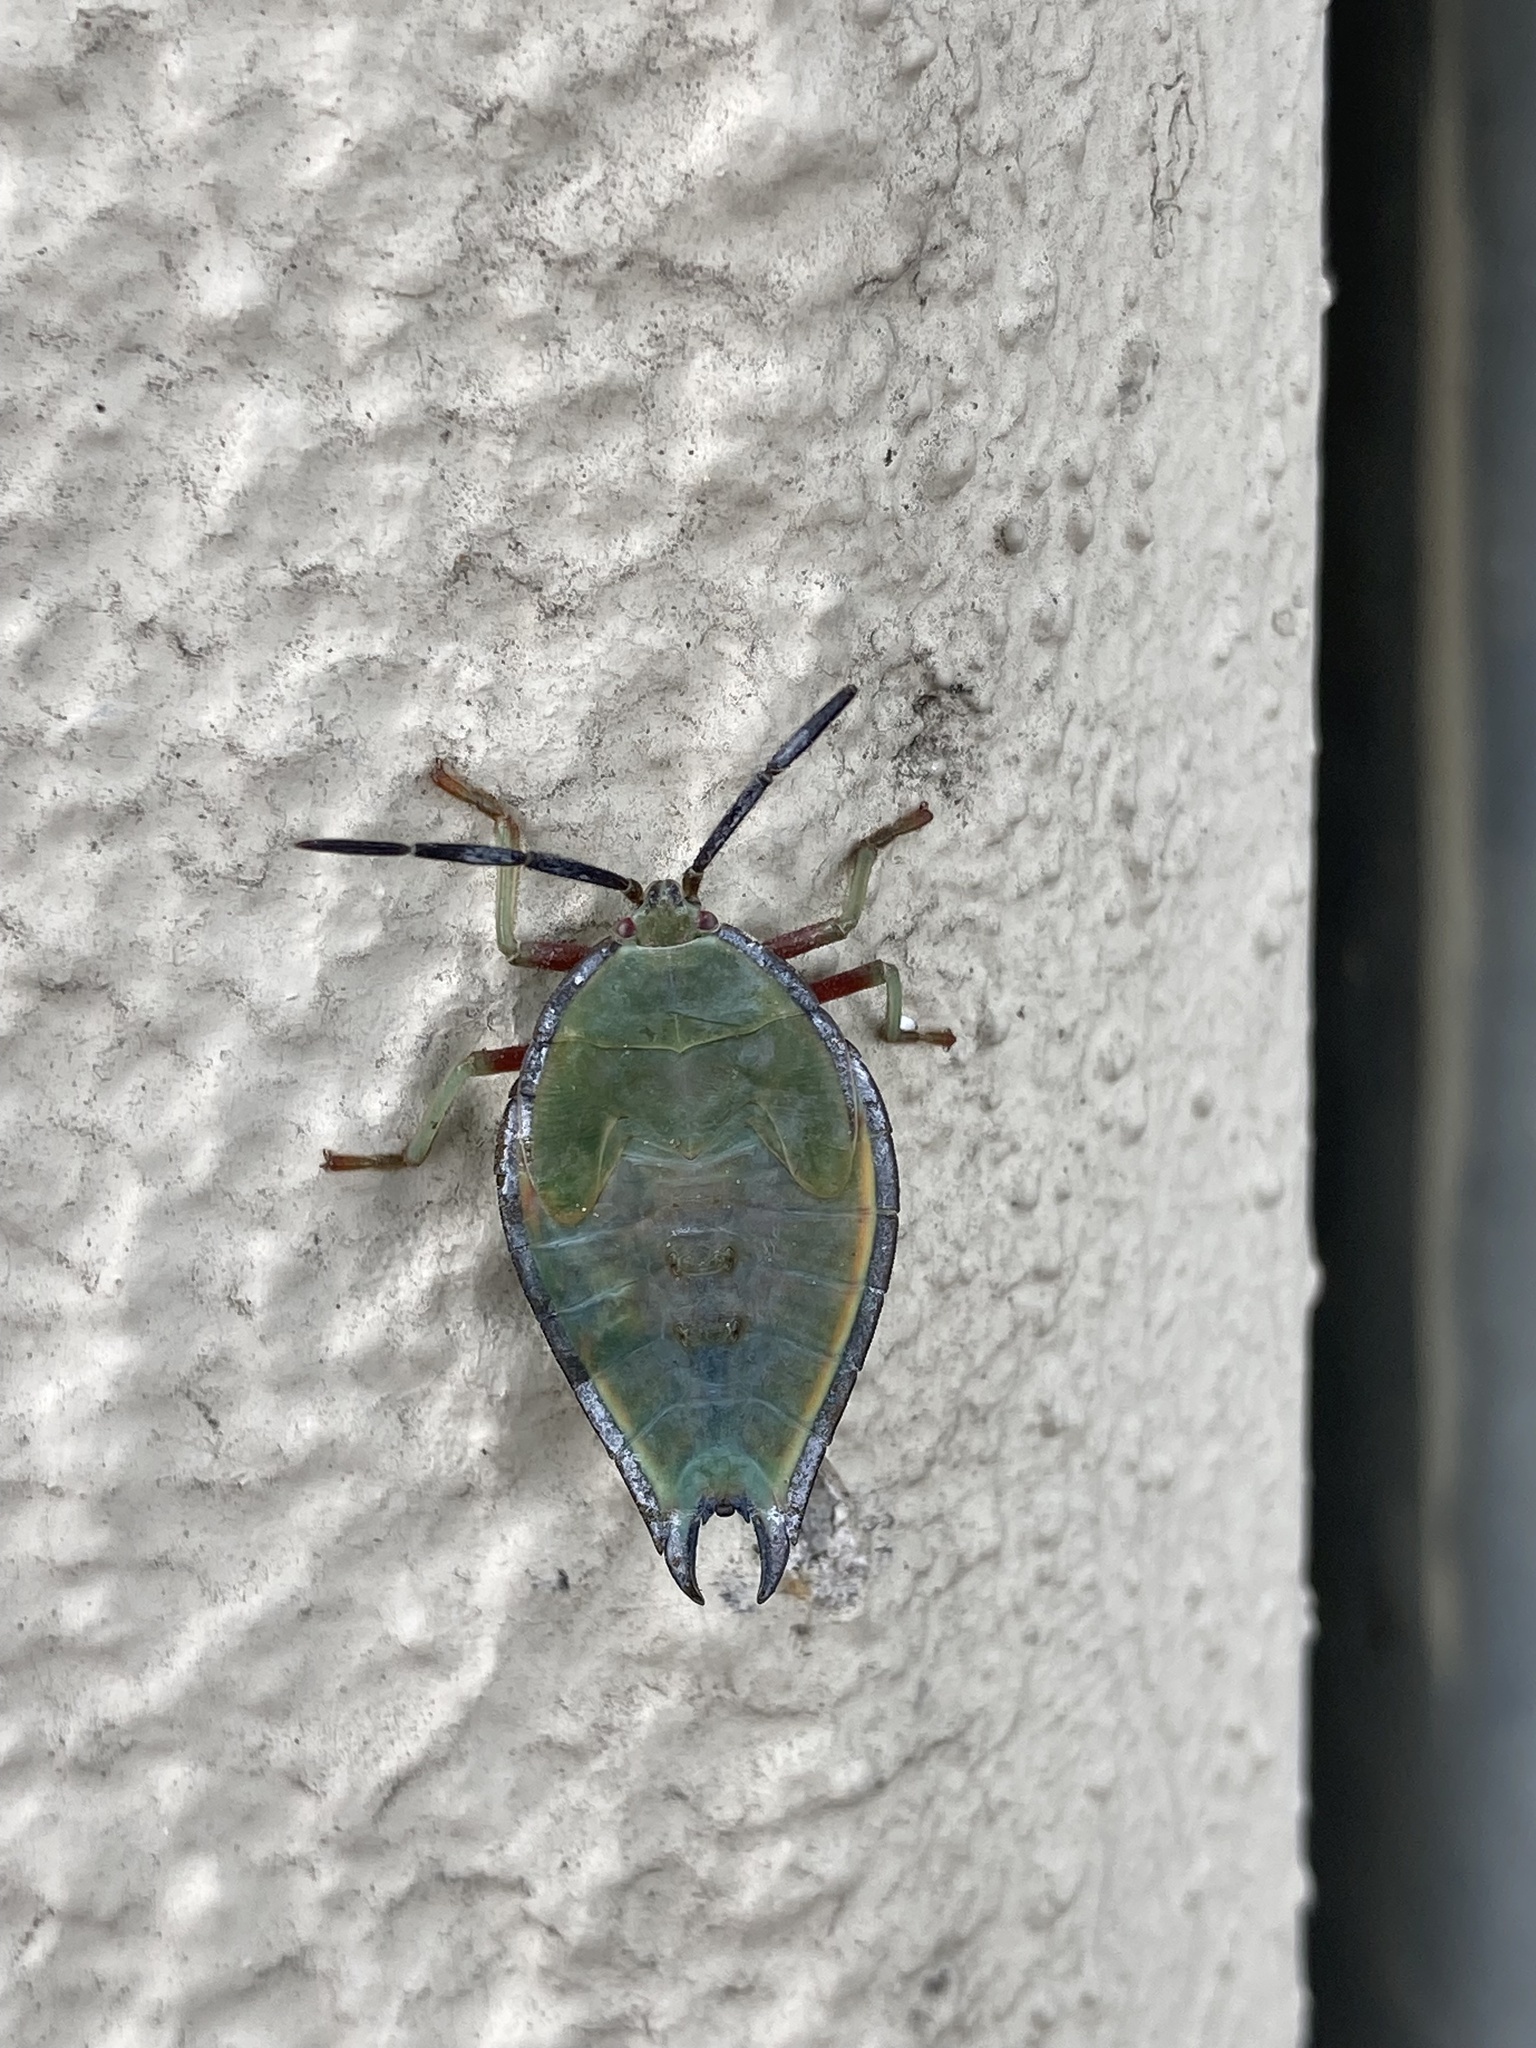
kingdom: Animalia
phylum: Arthropoda
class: Insecta
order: Hemiptera
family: Tessaratomidae
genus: Lyramorpha
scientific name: Lyramorpha rosea
